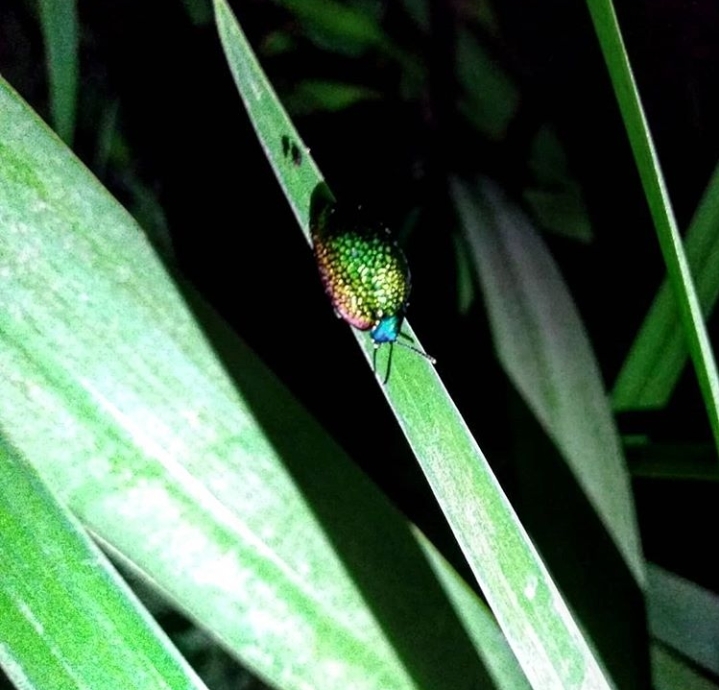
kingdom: Animalia
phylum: Arthropoda
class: Insecta
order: Coleoptera
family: Chrysomelidae
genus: Stolas
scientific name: Stolas festiva
